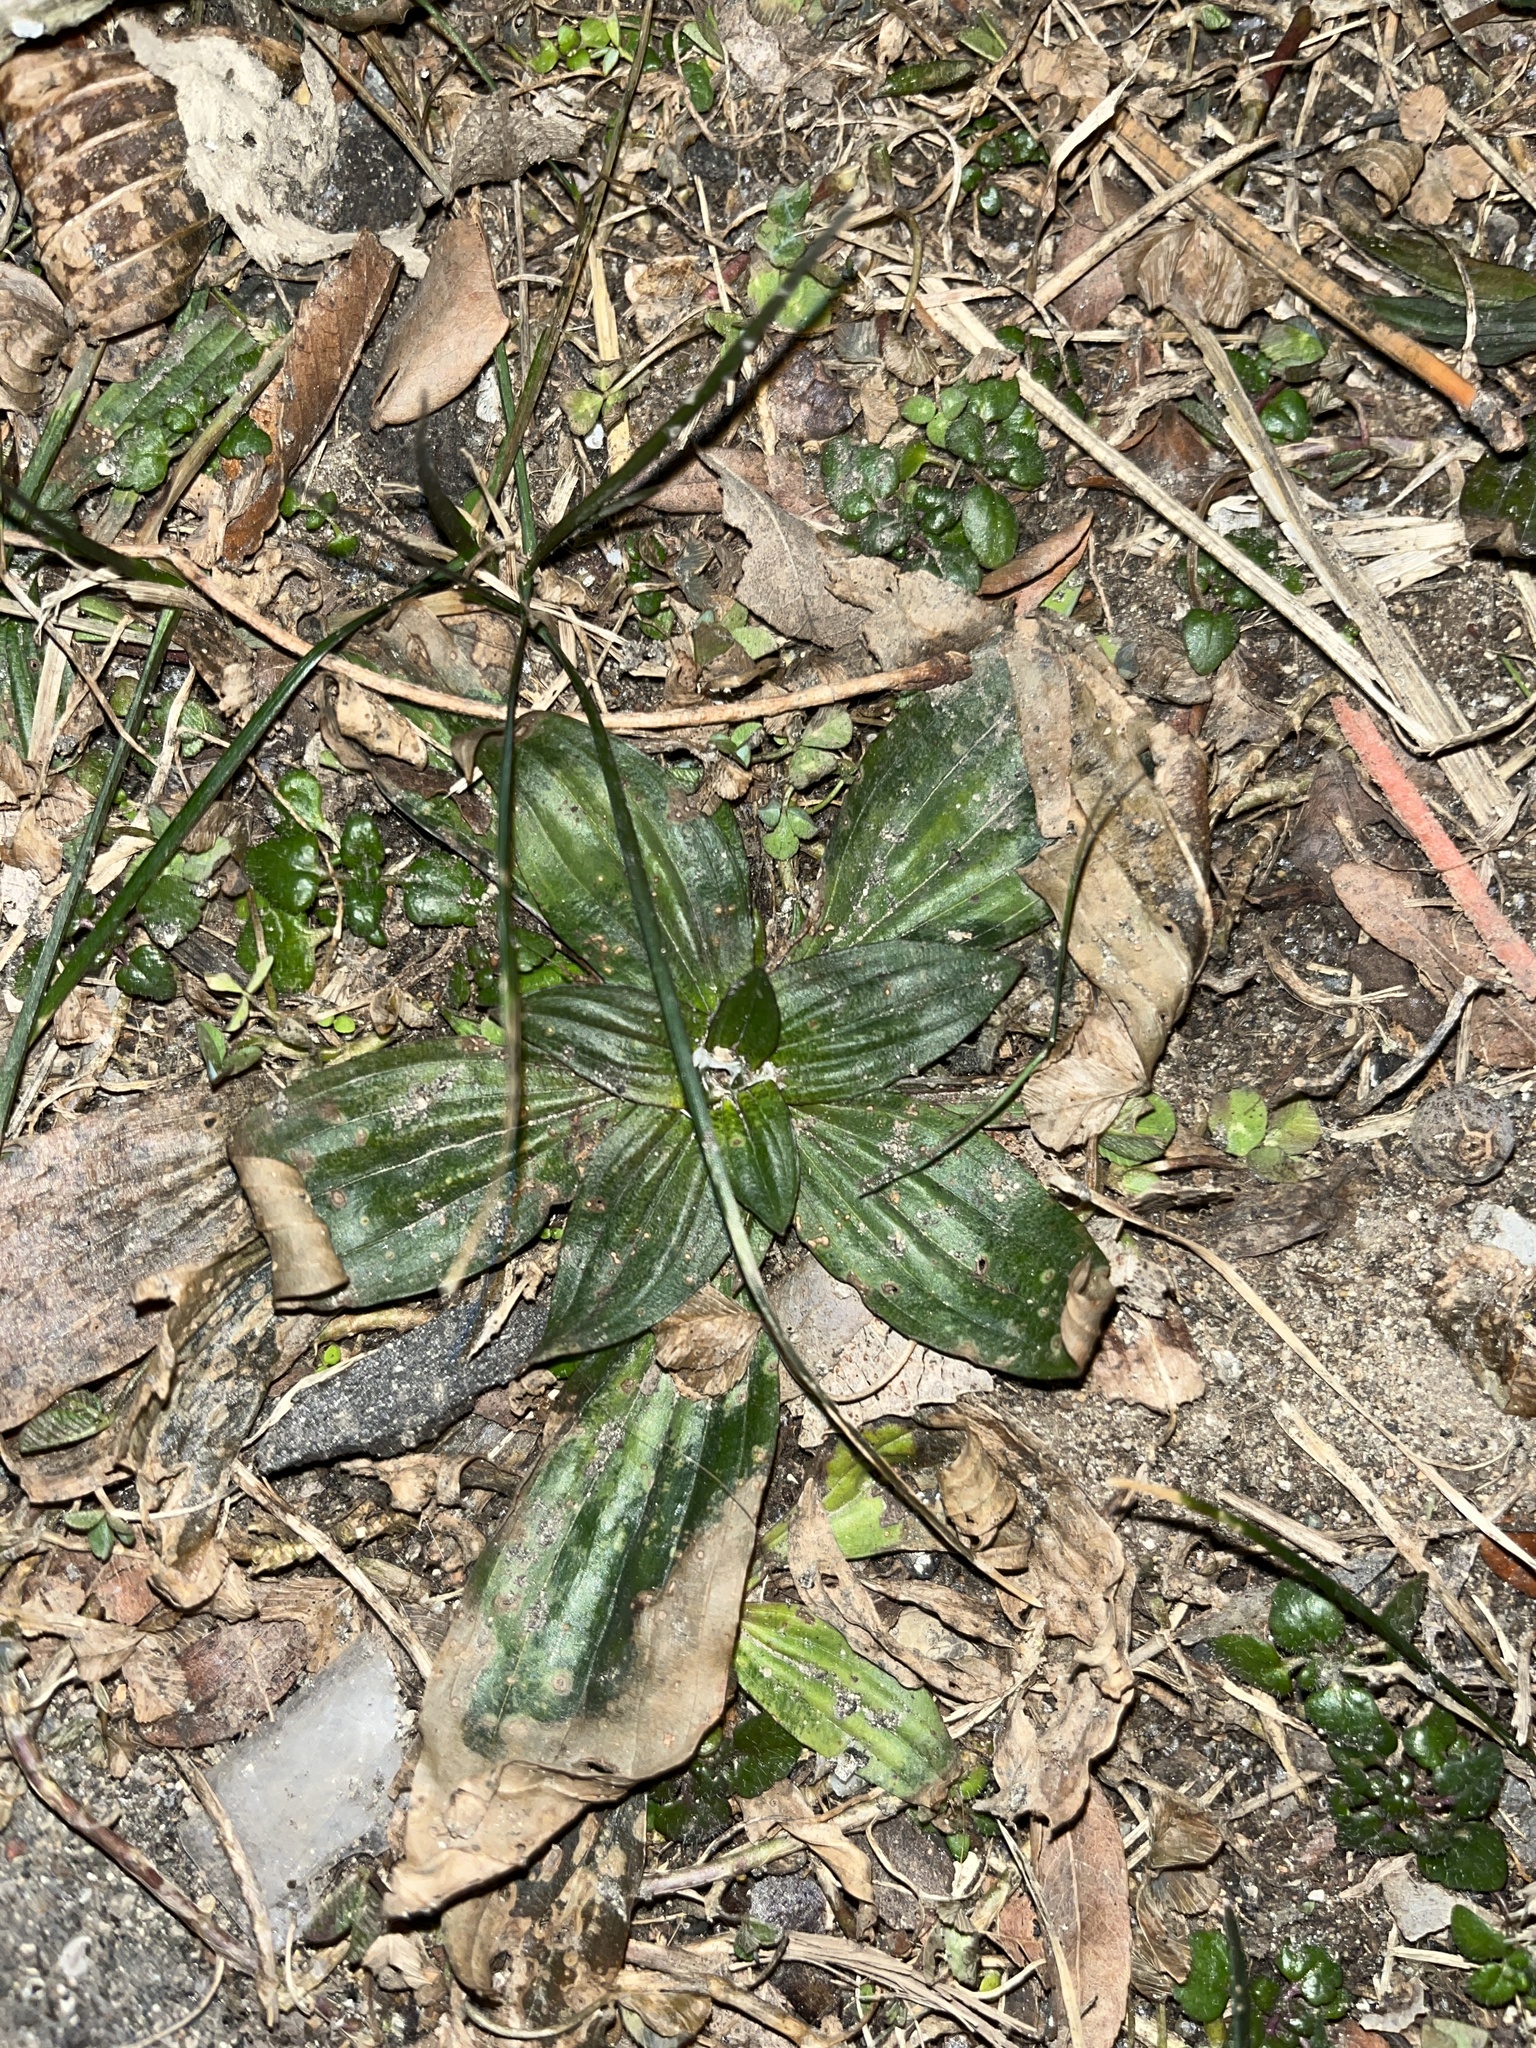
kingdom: Plantae
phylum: Tracheophyta
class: Magnoliopsida
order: Lamiales
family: Plantaginaceae
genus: Plantago
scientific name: Plantago lanceolata
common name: Ribwort plantain
